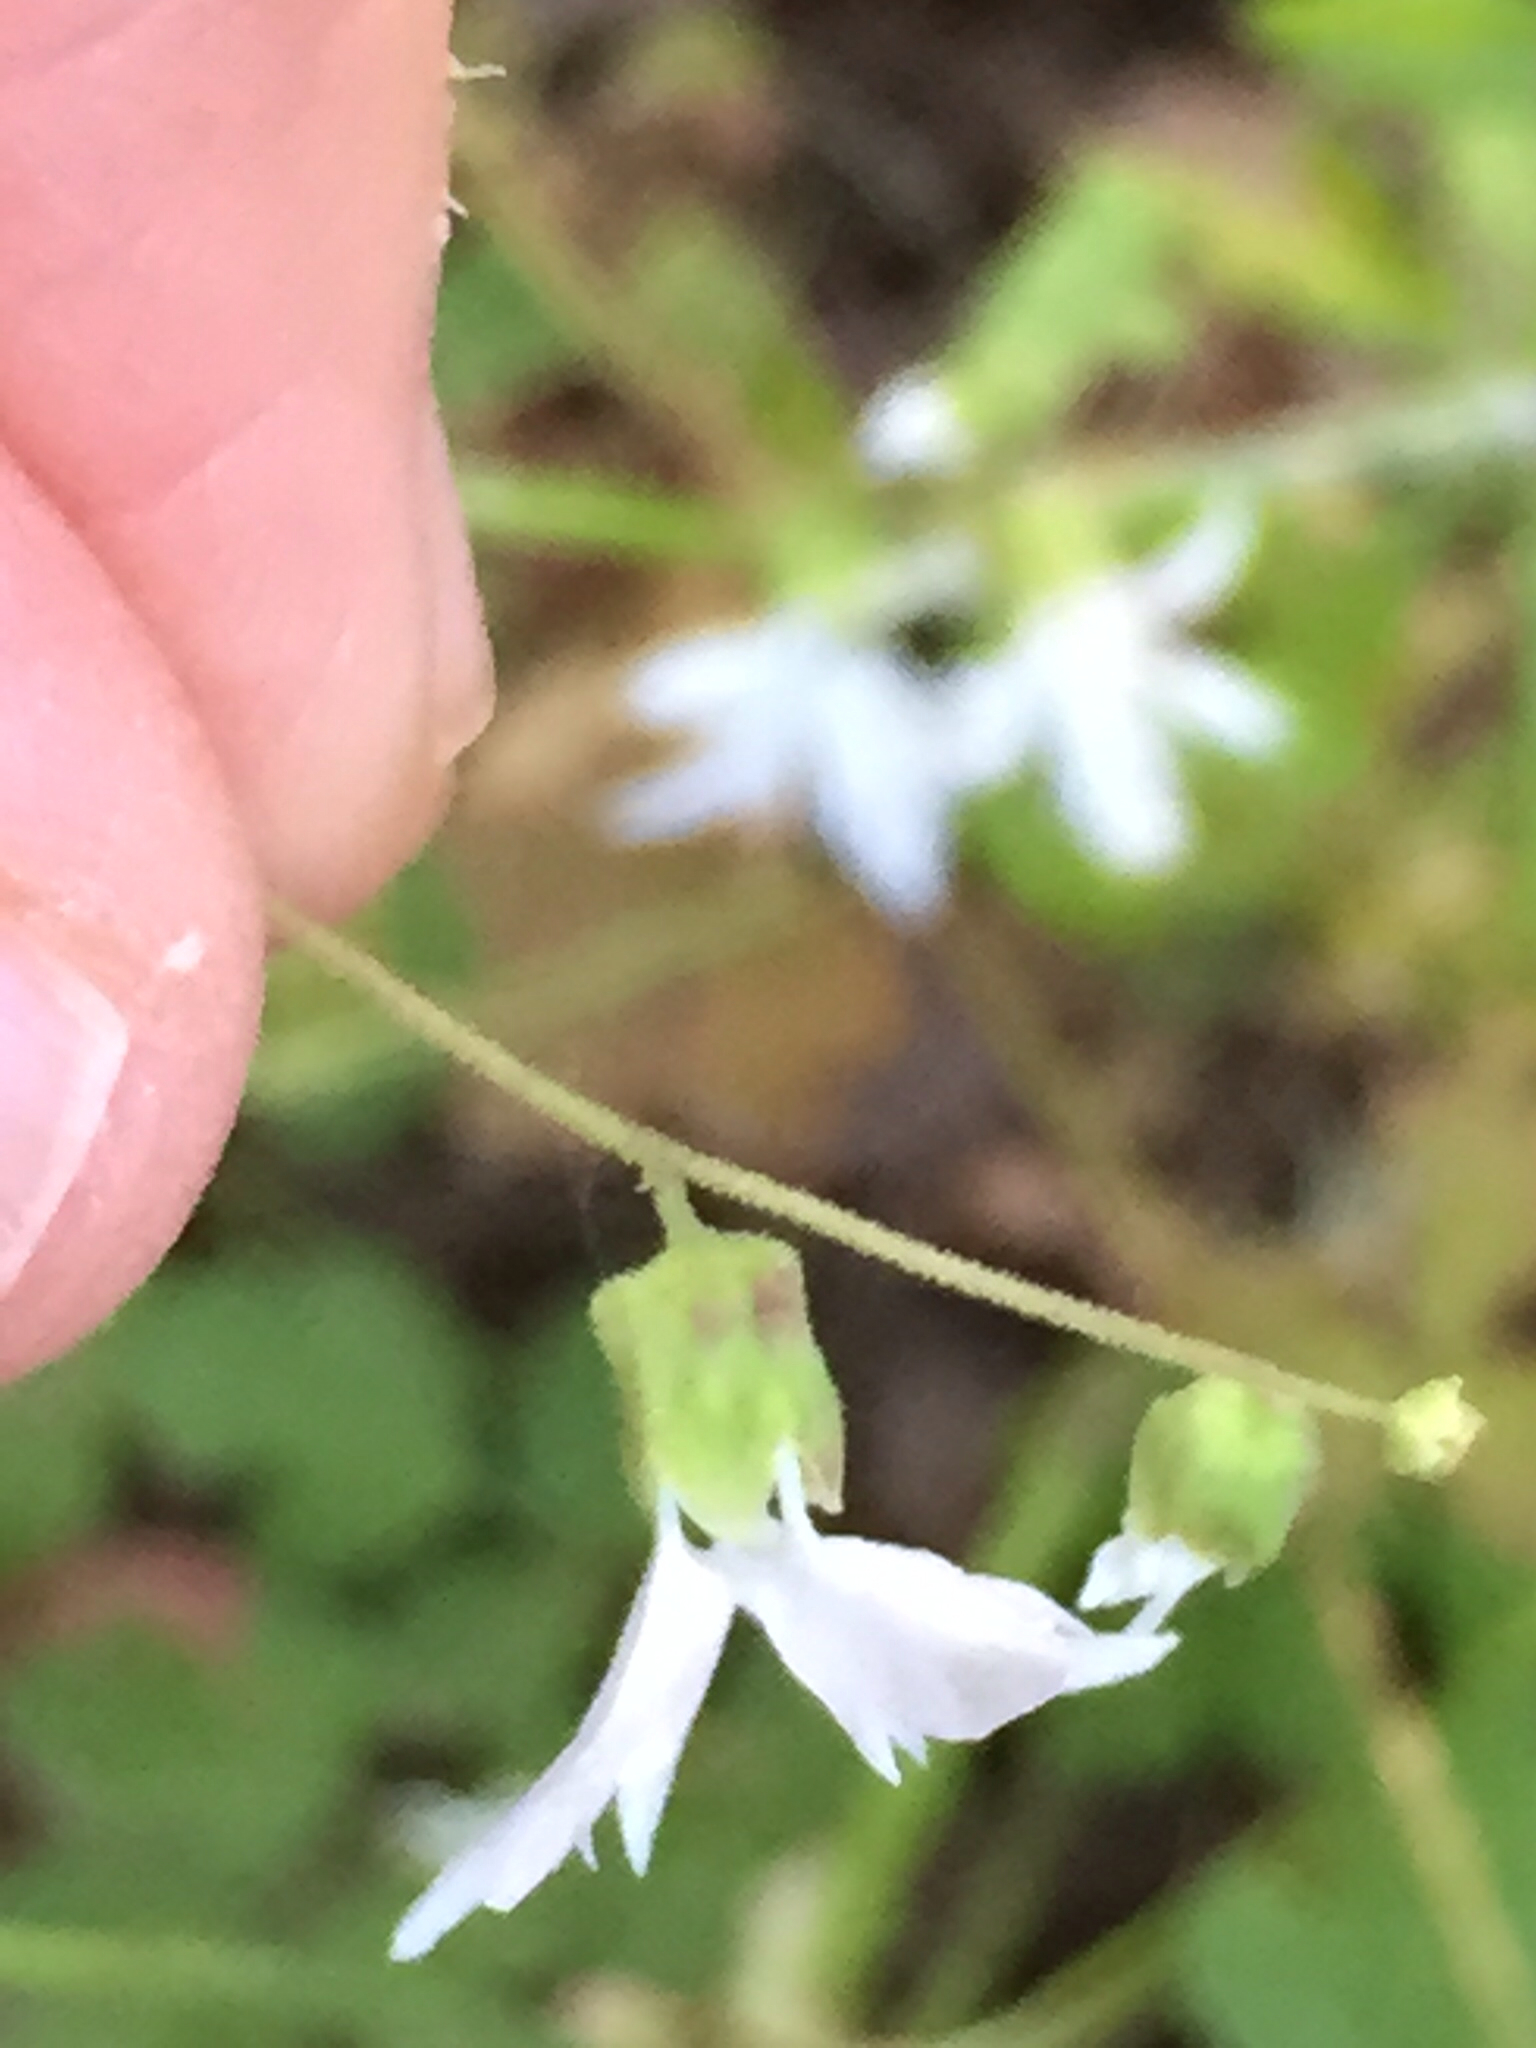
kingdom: Plantae
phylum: Tracheophyta
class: Magnoliopsida
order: Saxifragales
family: Saxifragaceae
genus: Lithophragma
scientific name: Lithophragma heterophyllum
